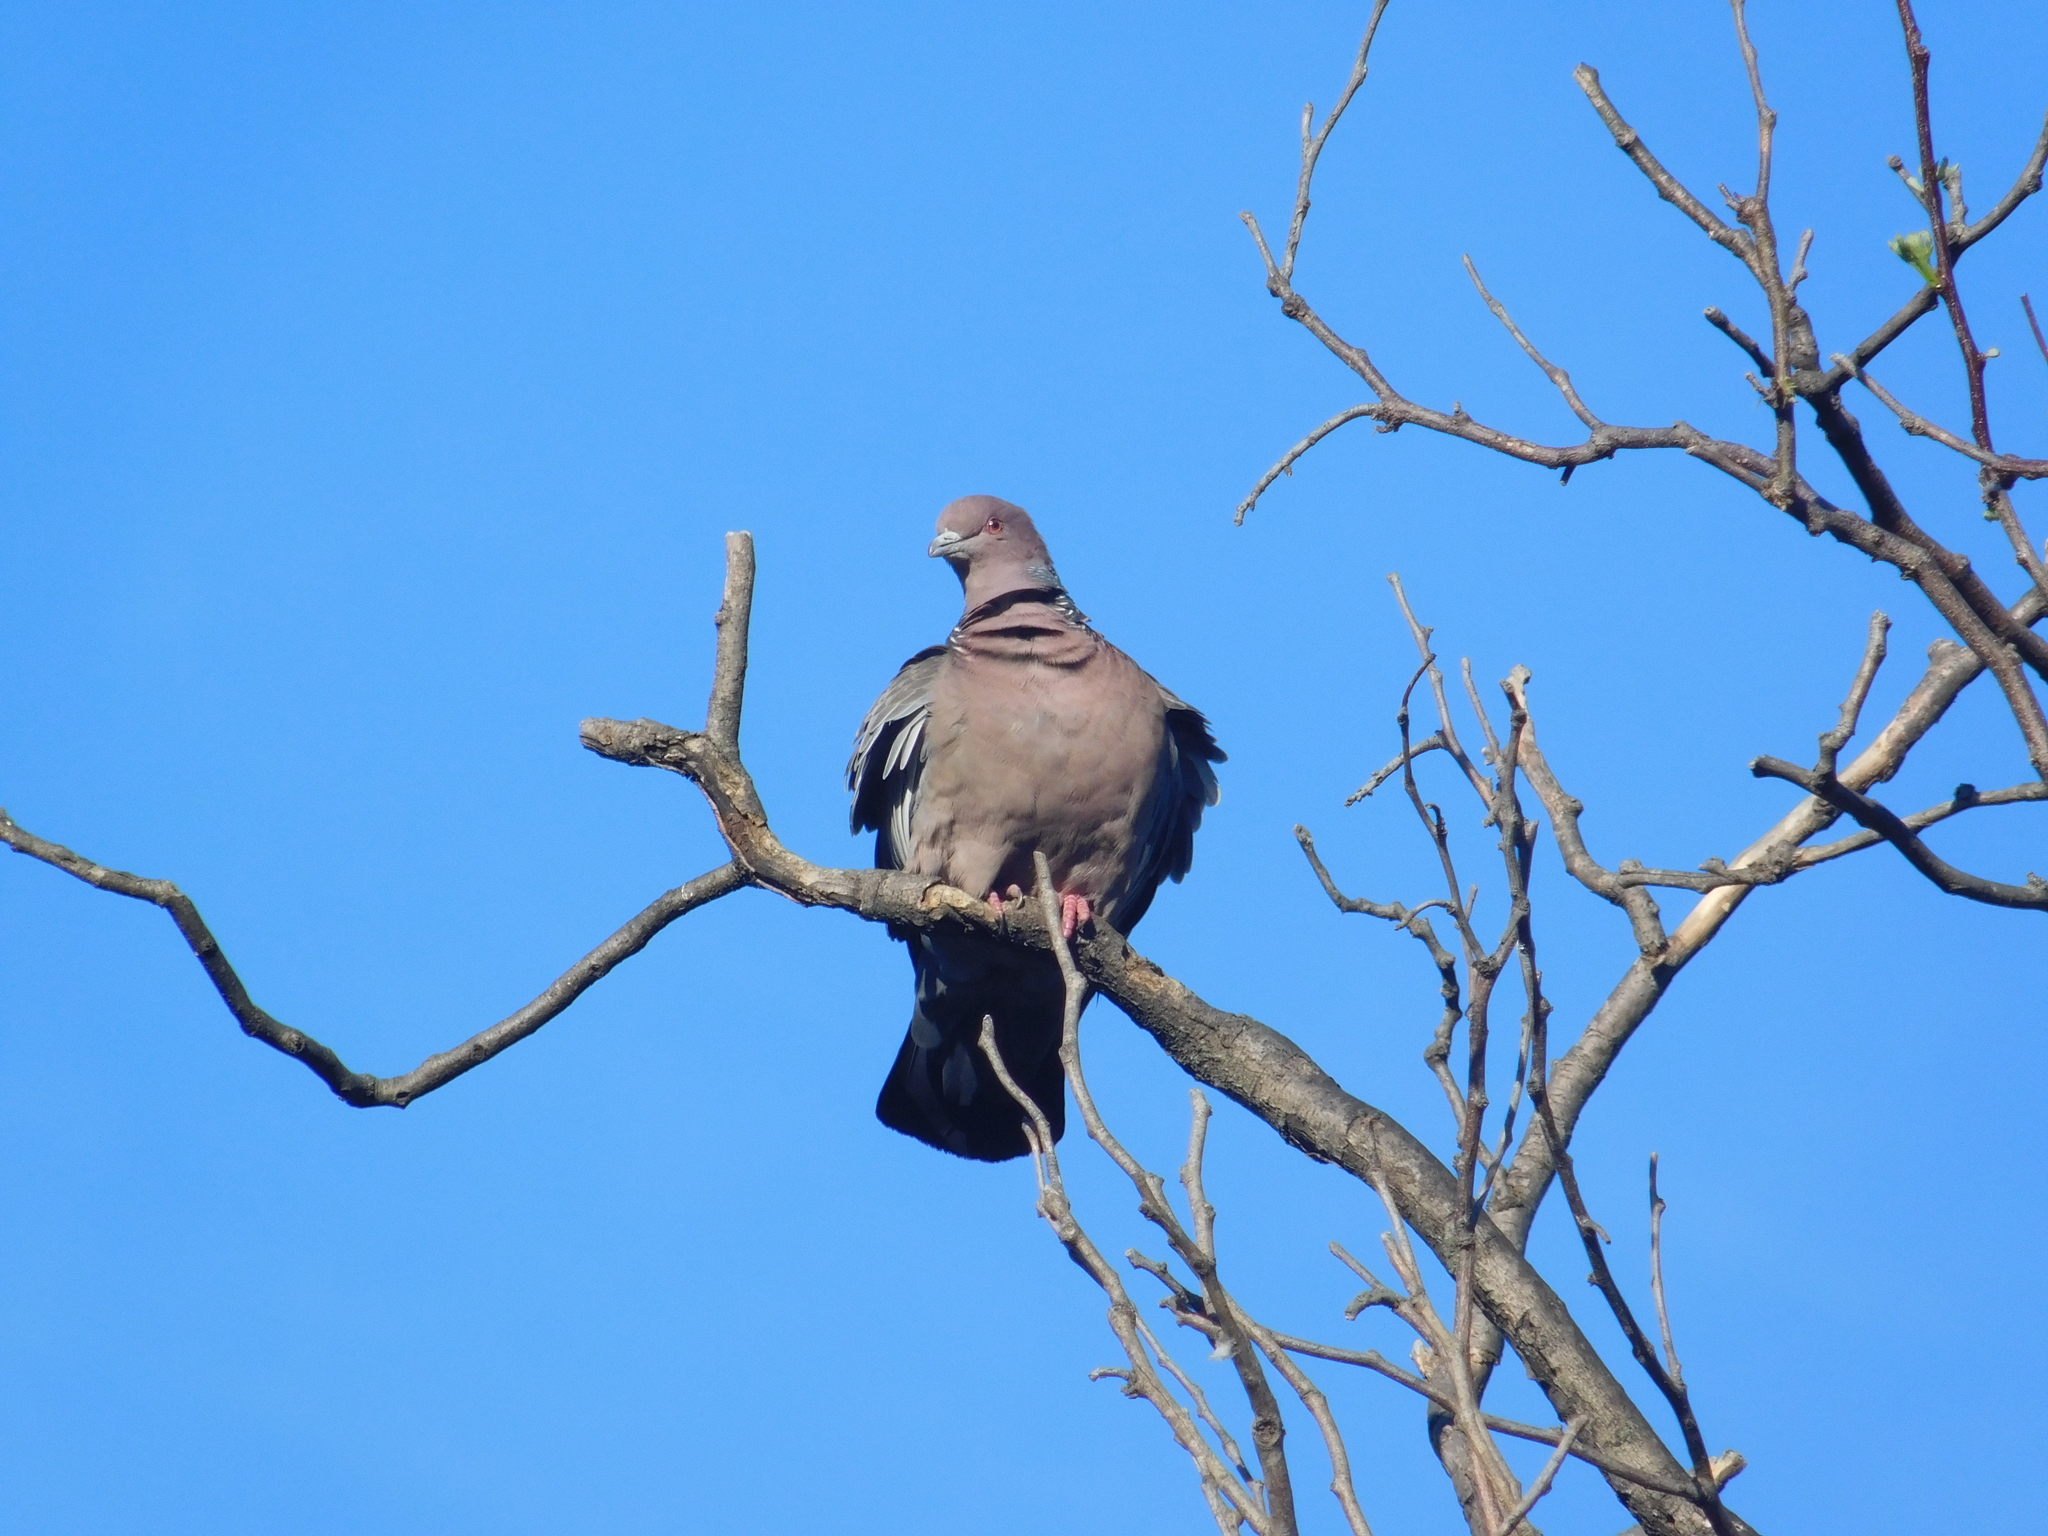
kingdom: Animalia
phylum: Chordata
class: Aves
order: Columbiformes
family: Columbidae
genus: Patagioenas
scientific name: Patagioenas picazuro
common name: Picazuro pigeon
